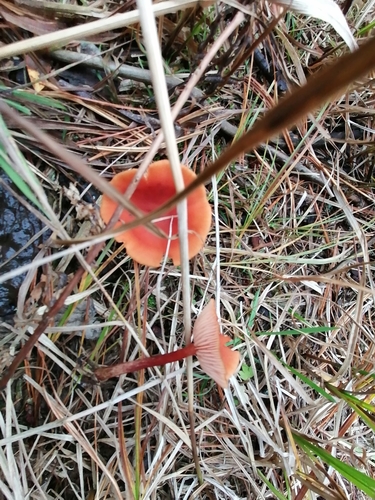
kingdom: Fungi
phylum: Basidiomycota
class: Agaricomycetes
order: Russulales
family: Russulaceae
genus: Lactarius
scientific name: Lactarius
